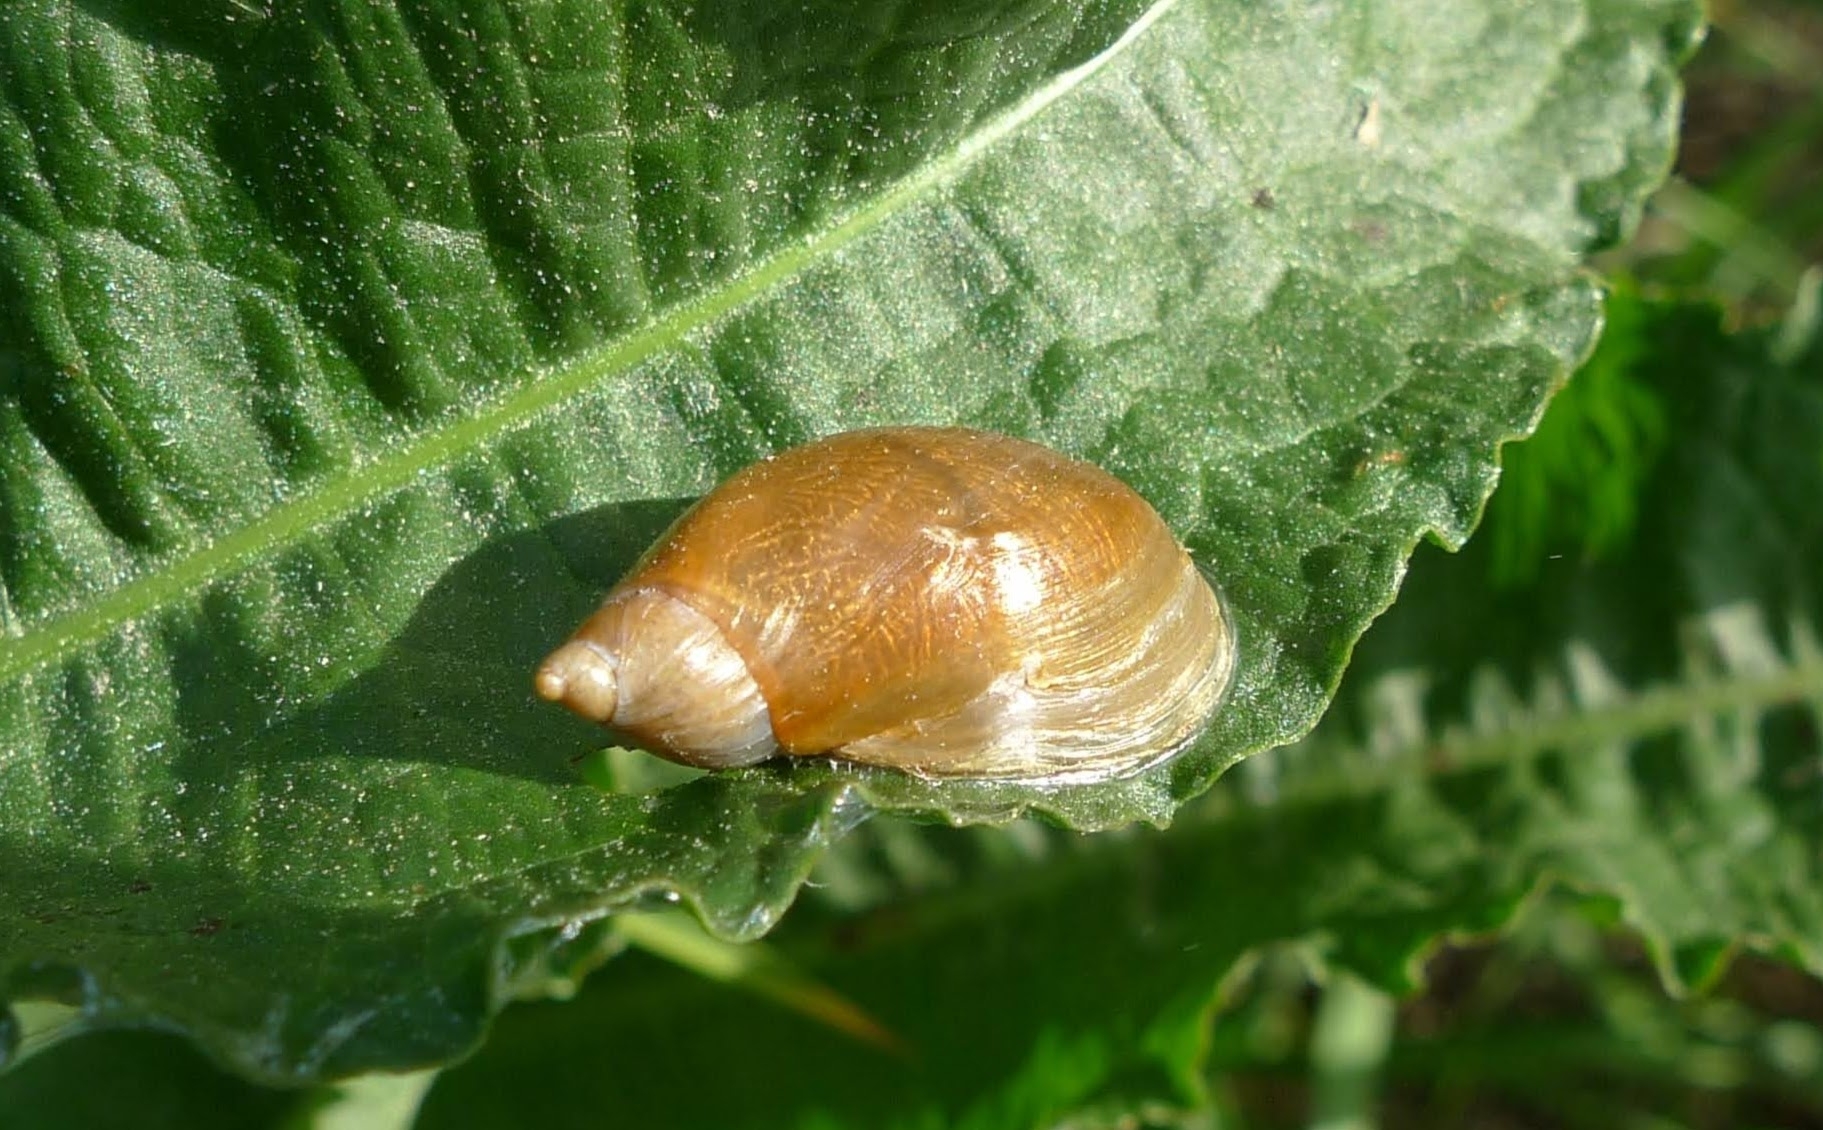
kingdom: Animalia
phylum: Mollusca
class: Gastropoda
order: Stylommatophora
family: Succineidae
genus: Succinea
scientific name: Succinea putris
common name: European ambersnail
